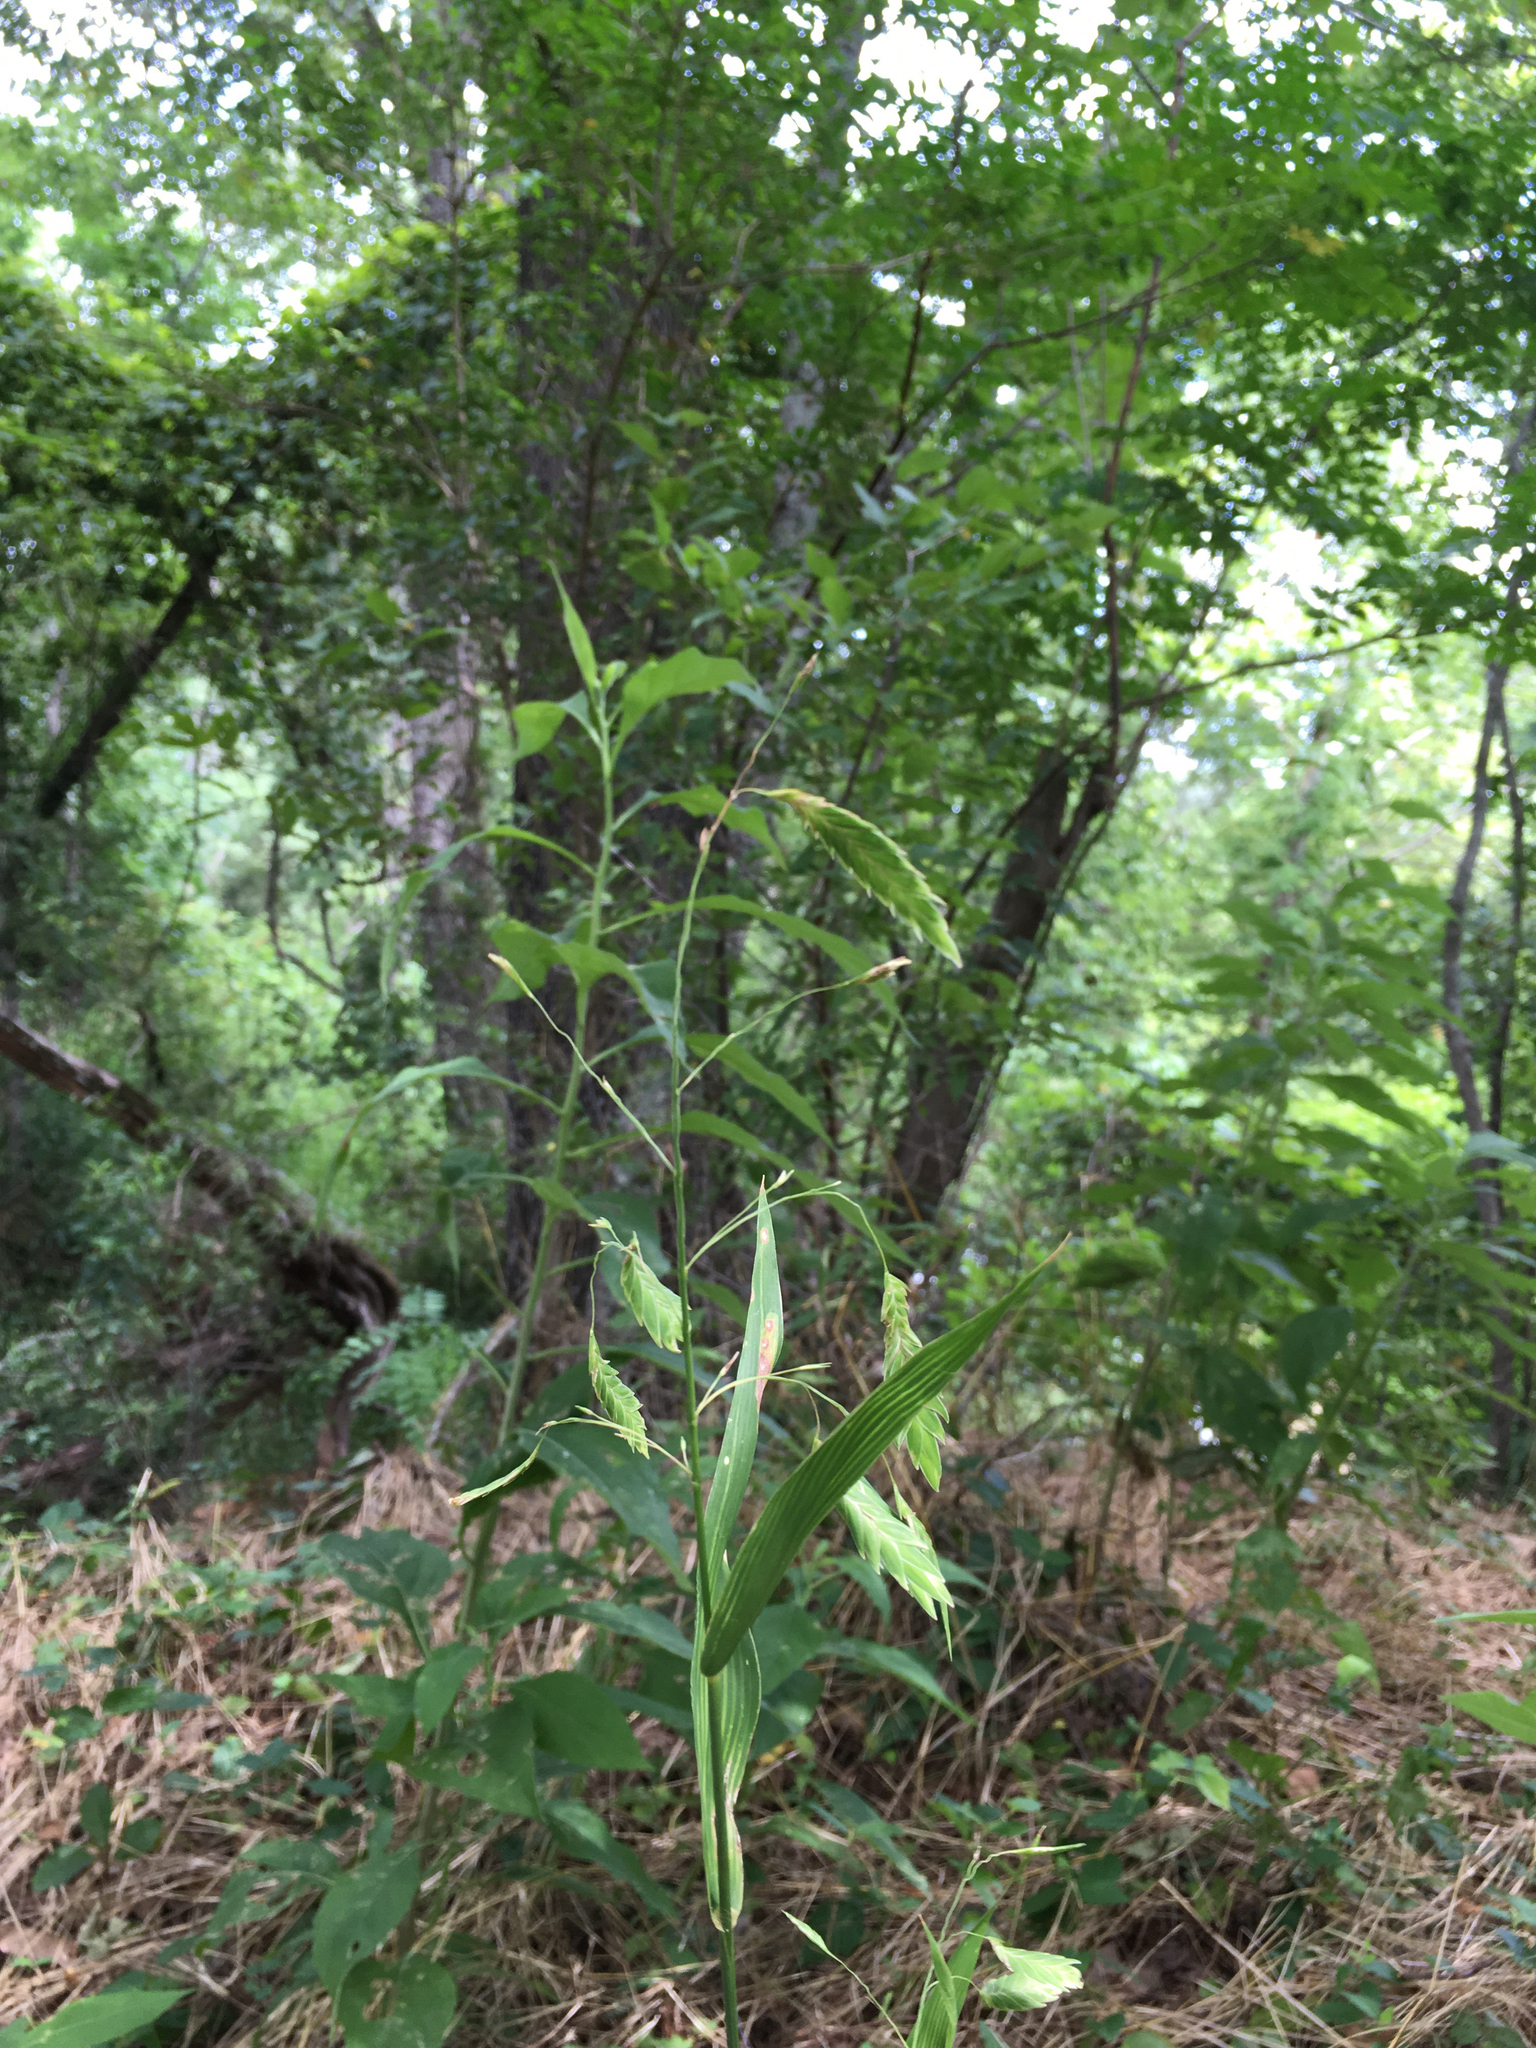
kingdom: Plantae
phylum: Tracheophyta
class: Liliopsida
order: Poales
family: Poaceae
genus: Chasmanthium
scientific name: Chasmanthium latifolium
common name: Broad-leaved chasmanthium
